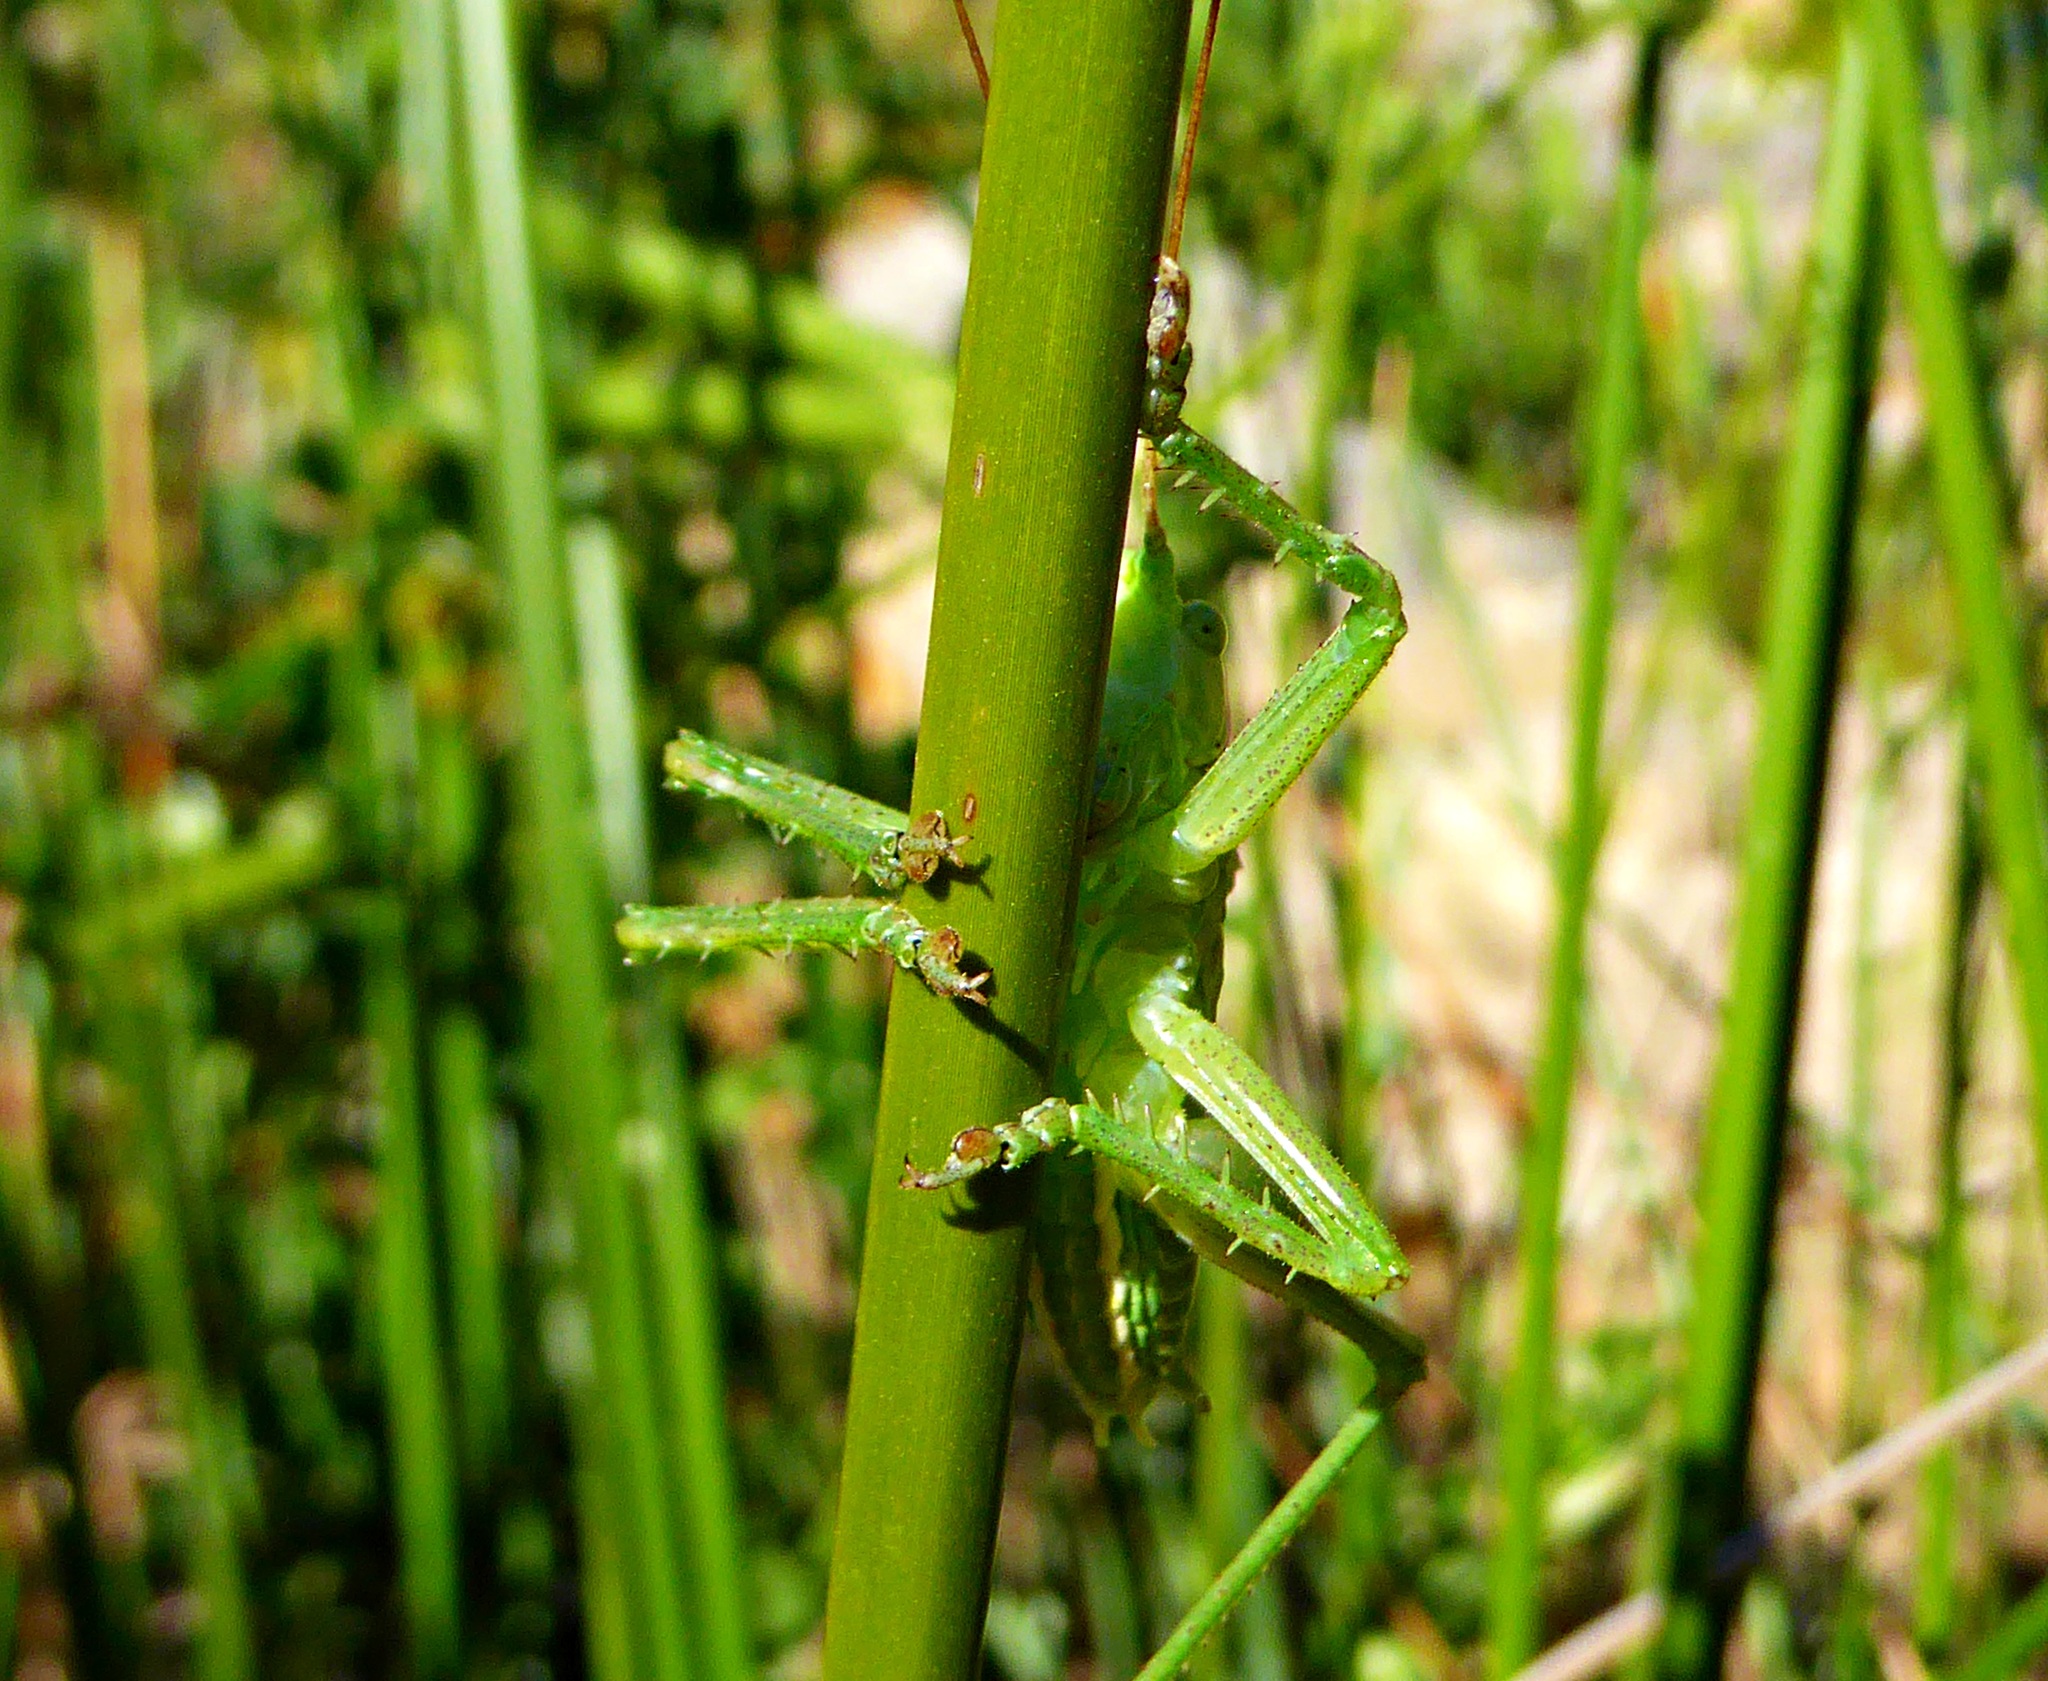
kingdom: Animalia
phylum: Arthropoda
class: Insecta
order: Orthoptera
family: Tettigoniidae
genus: Tettigonia
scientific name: Tettigonia viridissima
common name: Great green bush-cricket
